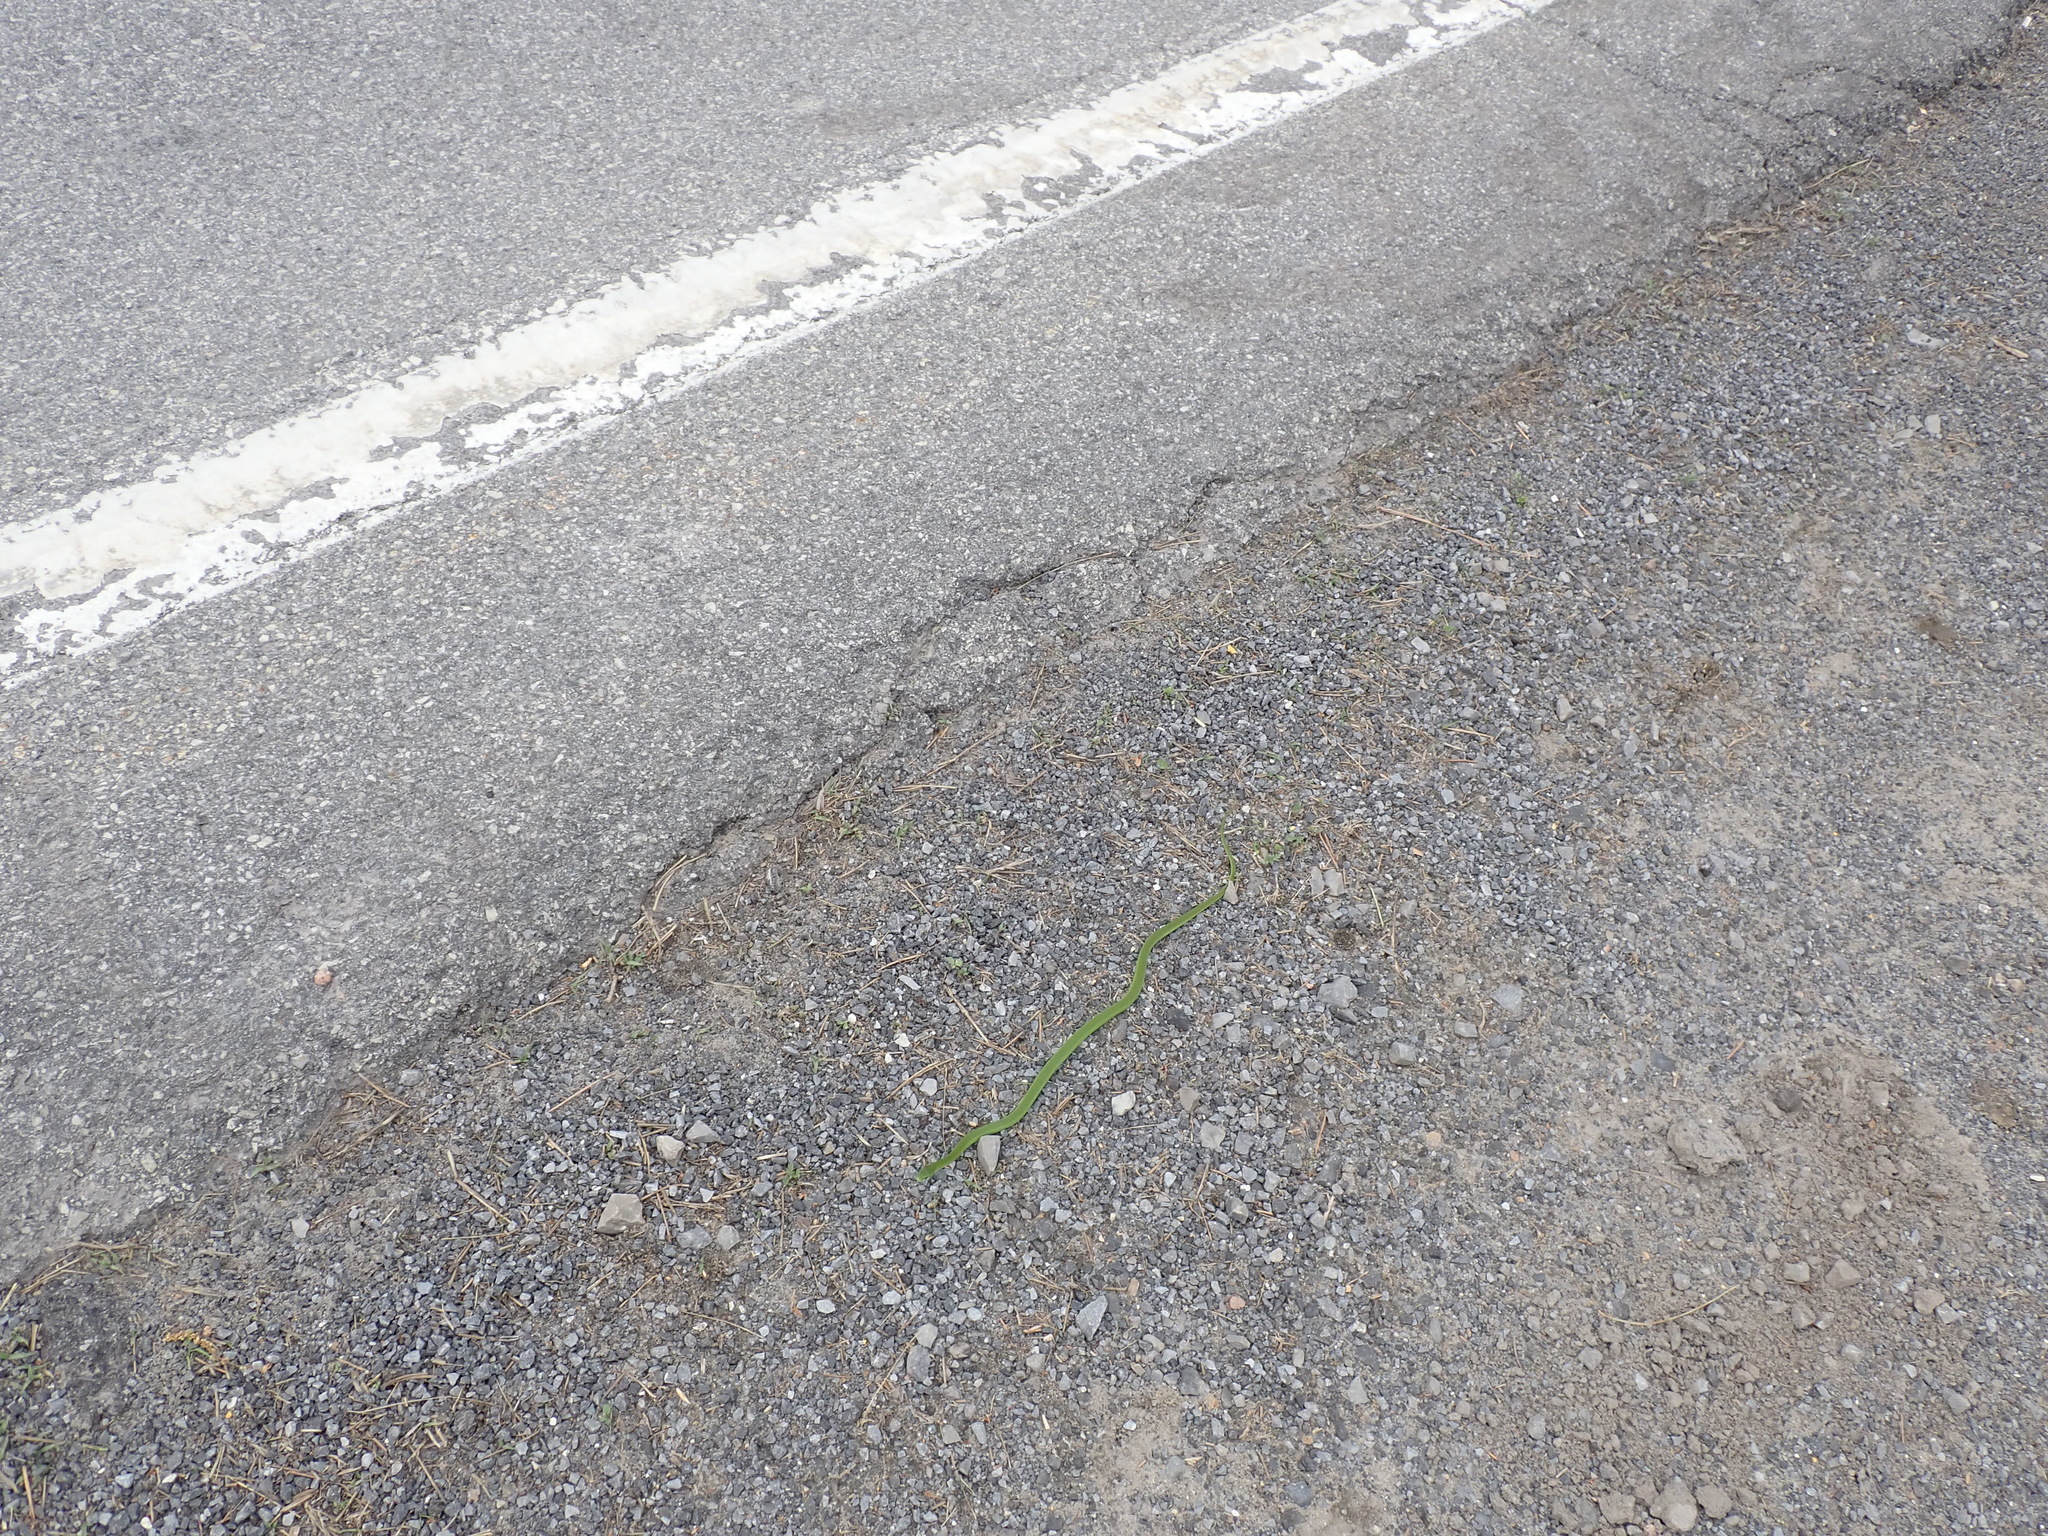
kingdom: Animalia
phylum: Chordata
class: Squamata
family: Colubridae
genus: Opheodrys
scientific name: Opheodrys vernalis
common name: Smooth green snake
